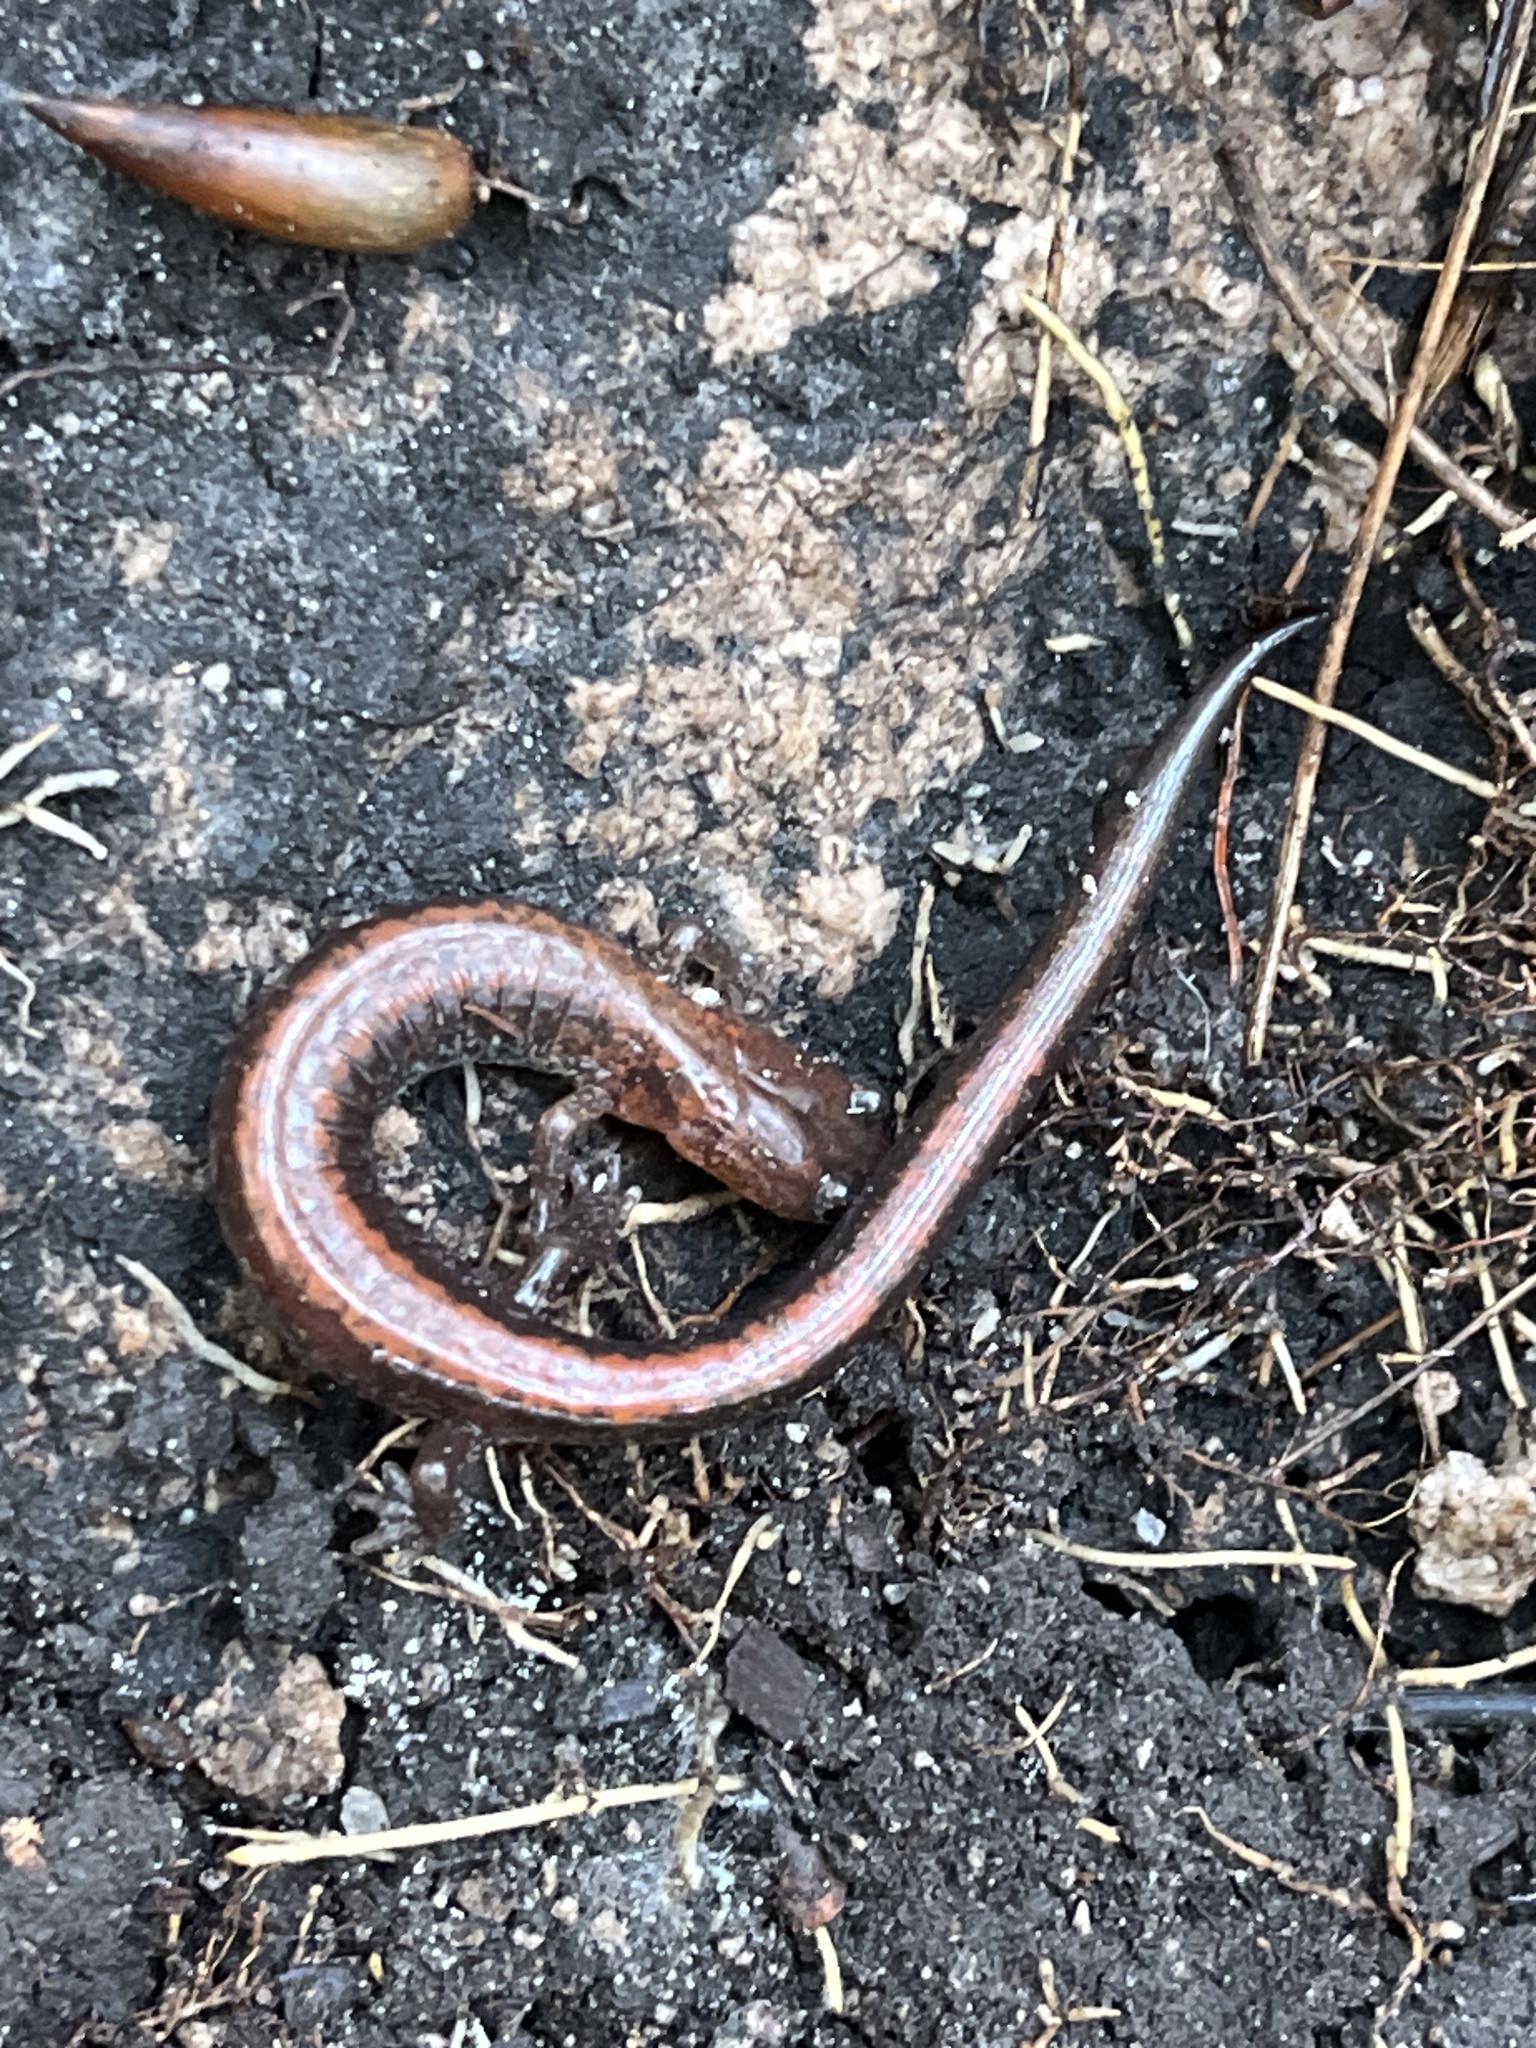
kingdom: Animalia
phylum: Chordata
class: Amphibia
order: Caudata
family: Plethodontidae
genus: Plethodon
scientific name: Plethodon cinereus
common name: Redback salamander
